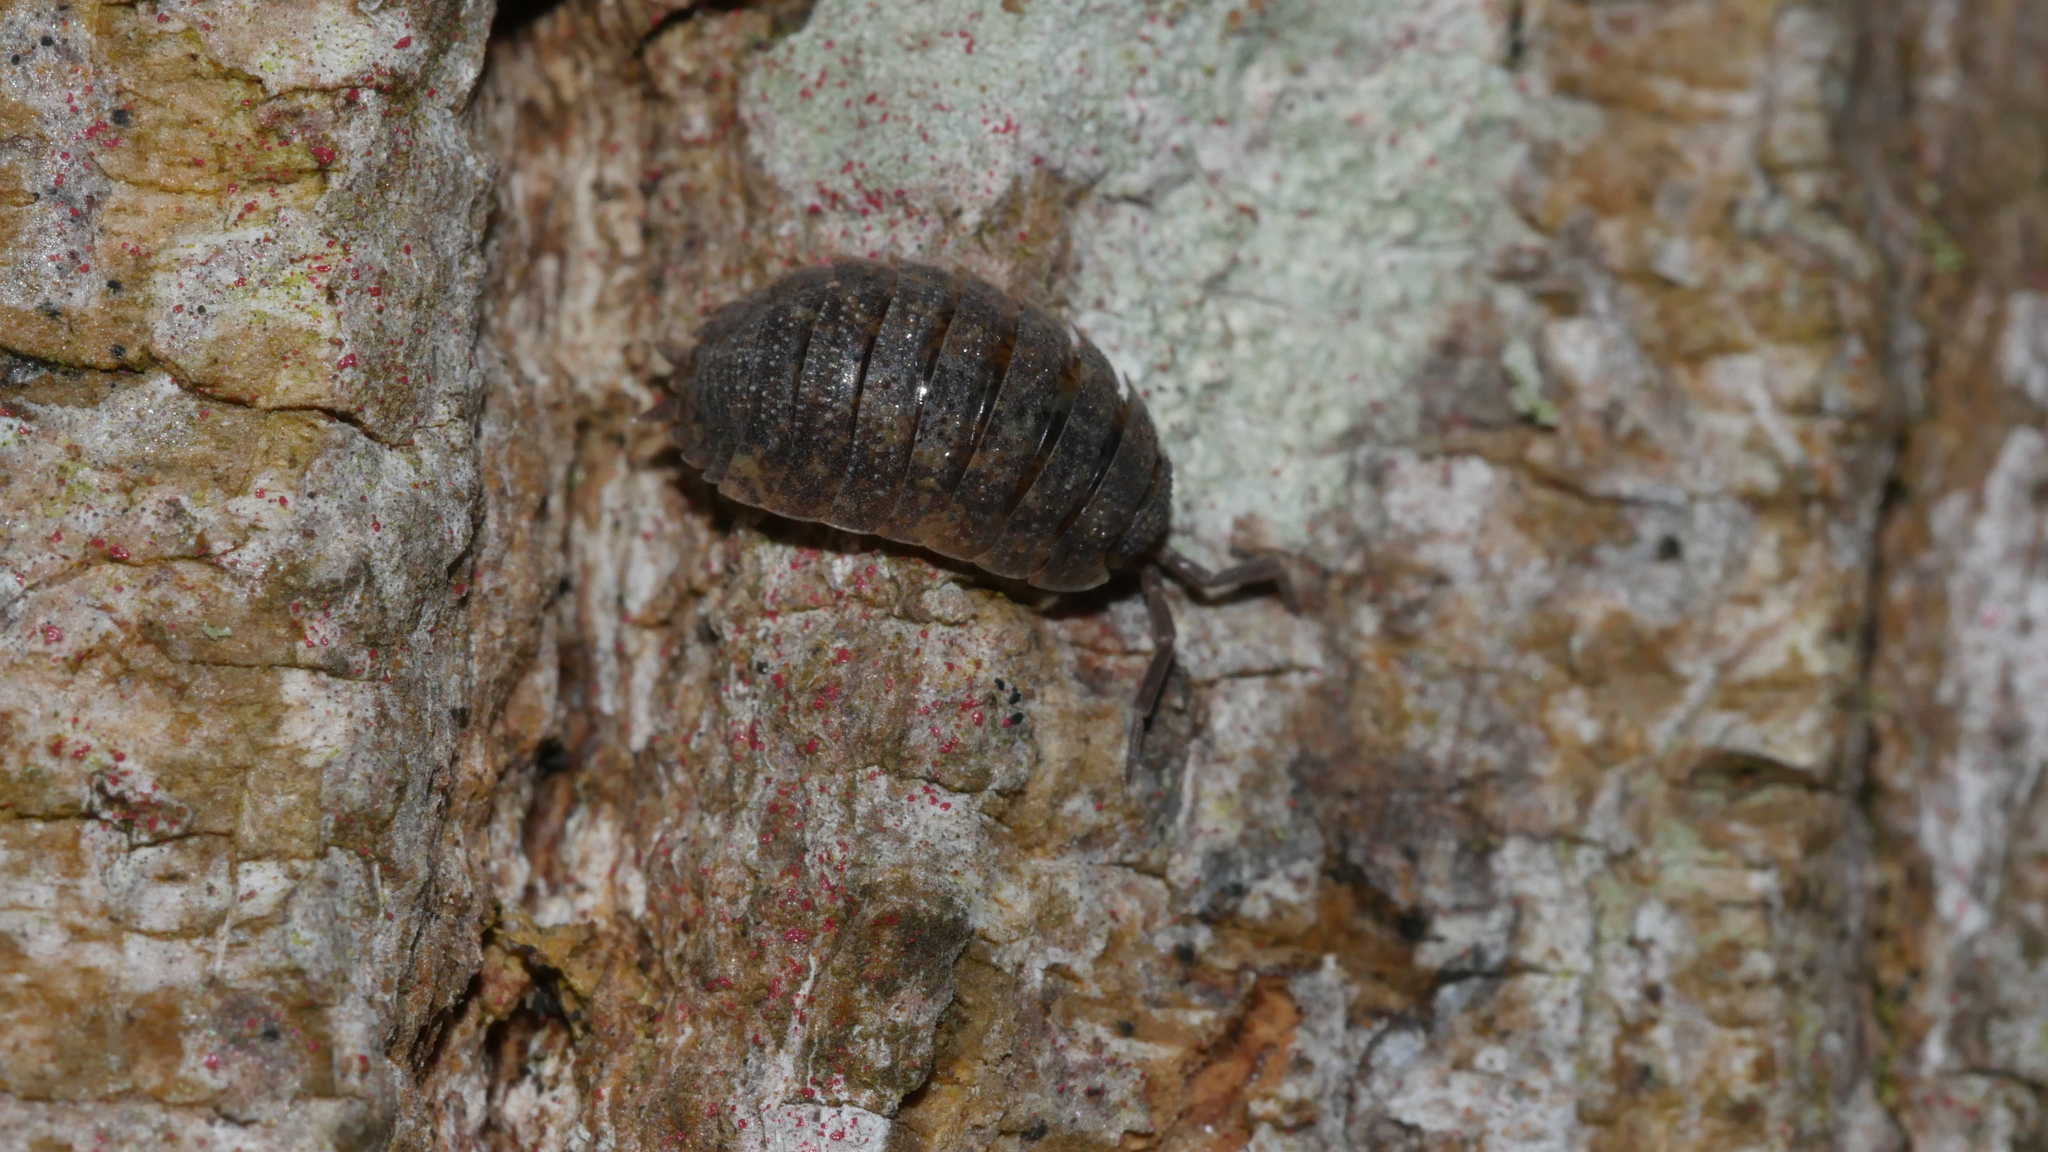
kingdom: Animalia
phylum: Arthropoda
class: Malacostraca
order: Isopoda
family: Porcellionidae
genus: Porcellio
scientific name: Porcellio scaber
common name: Common rough woodlouse
